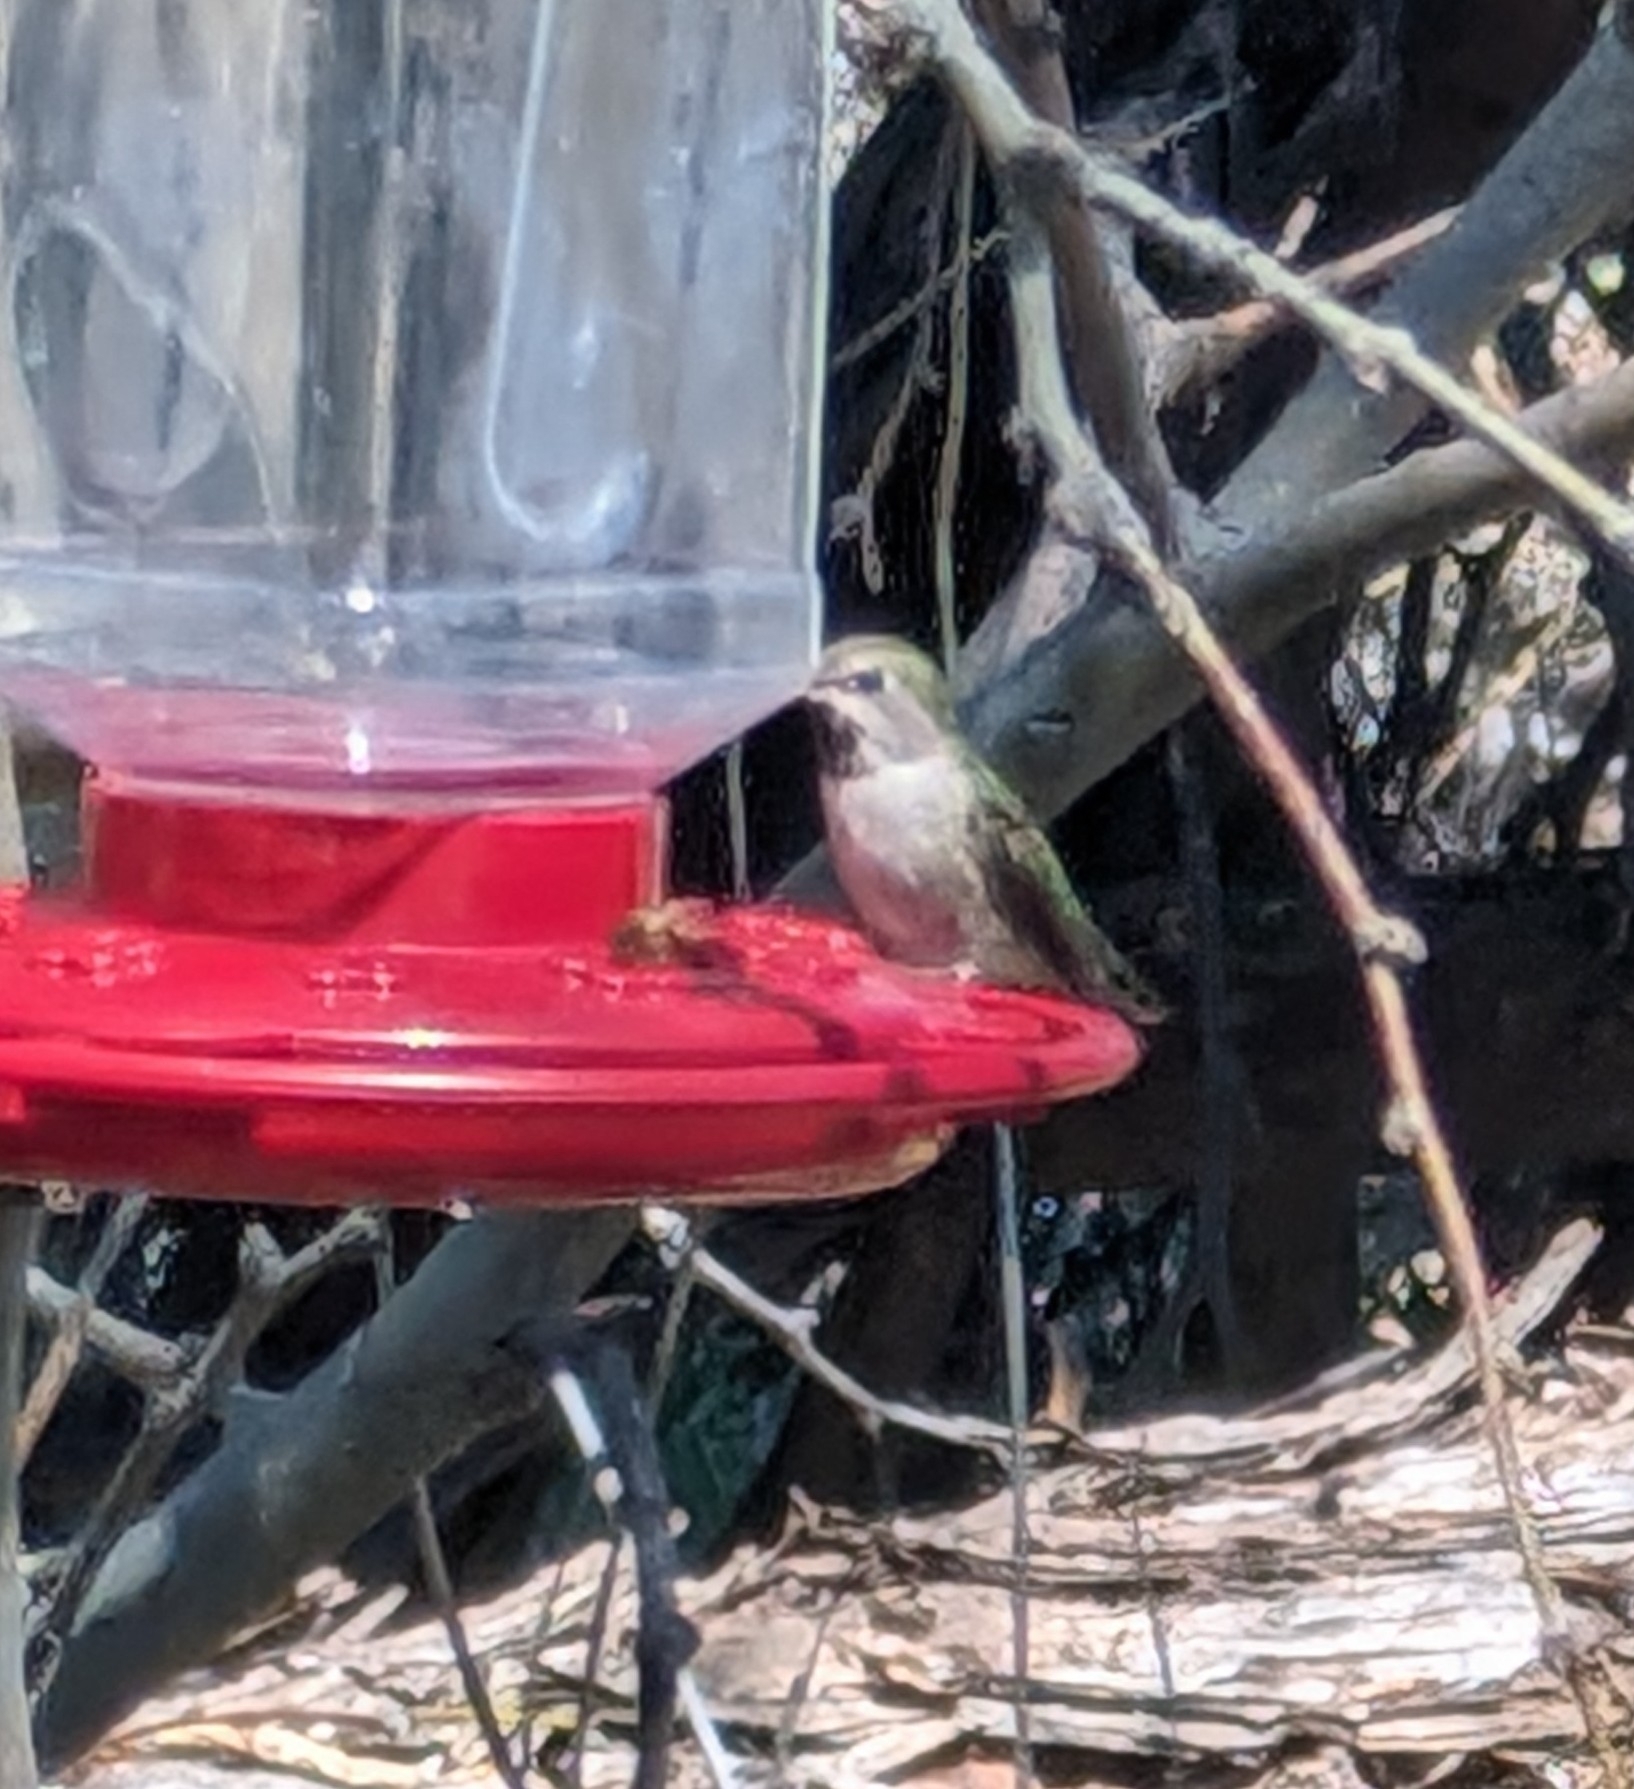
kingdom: Animalia
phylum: Chordata
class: Aves
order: Apodiformes
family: Trochilidae
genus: Calypte
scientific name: Calypte anna
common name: Anna's hummingbird
